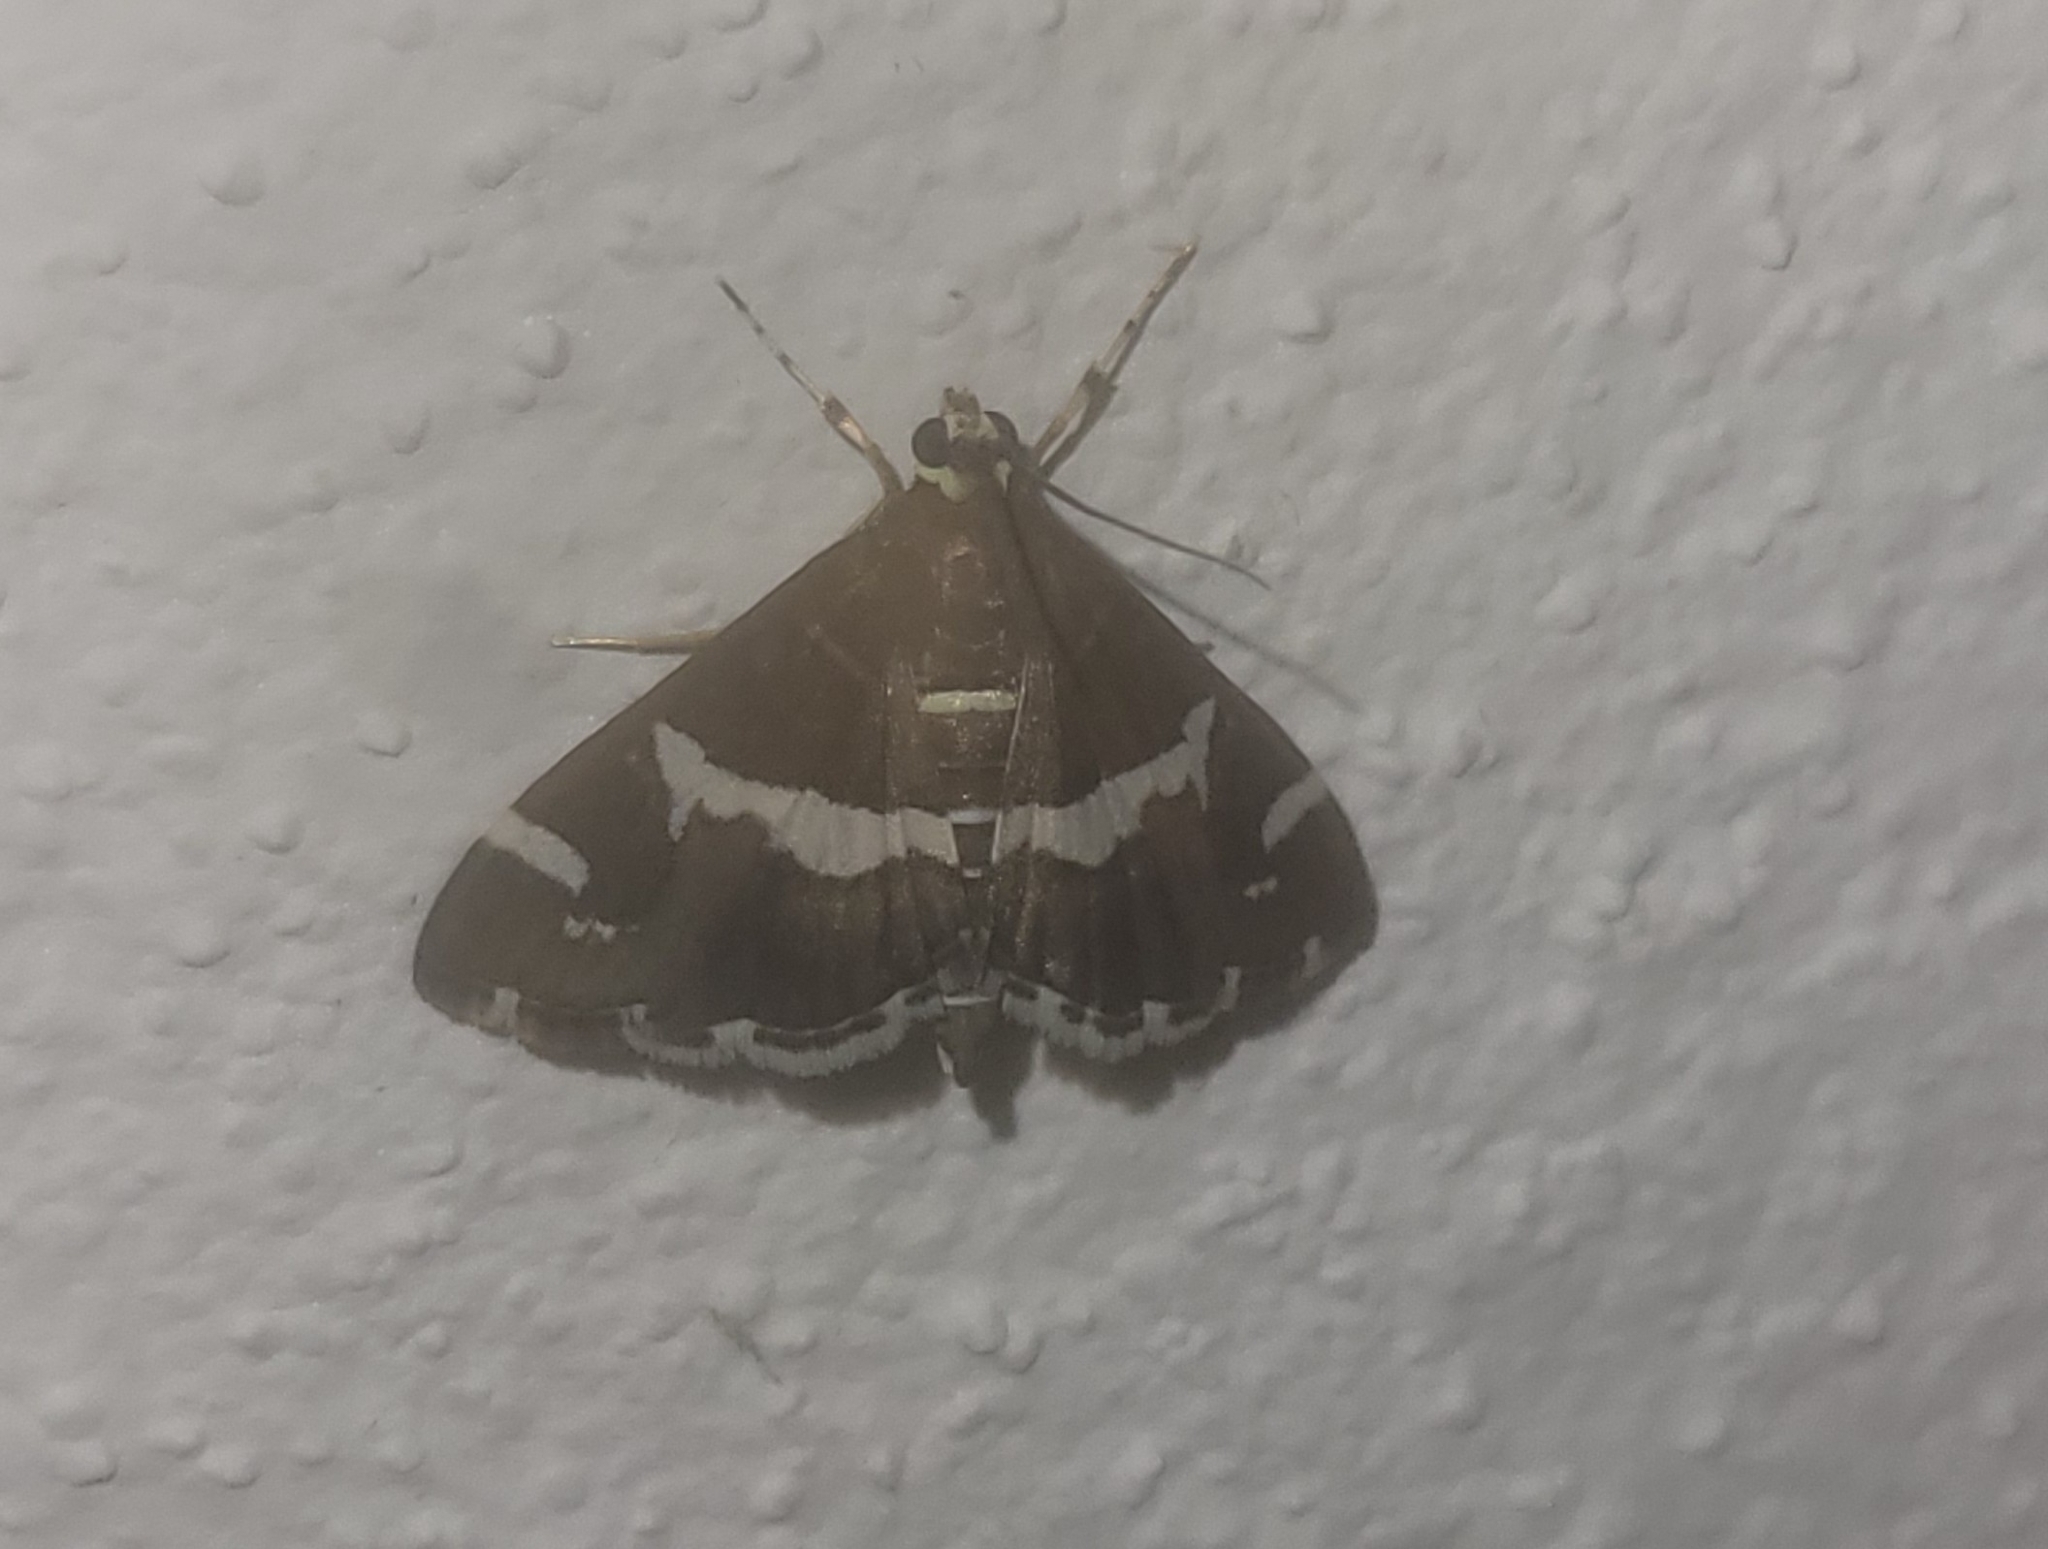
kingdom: Animalia
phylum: Arthropoda
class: Insecta
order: Lepidoptera
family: Crambidae
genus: Spoladea
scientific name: Spoladea recurvalis
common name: Beet webworm moth
